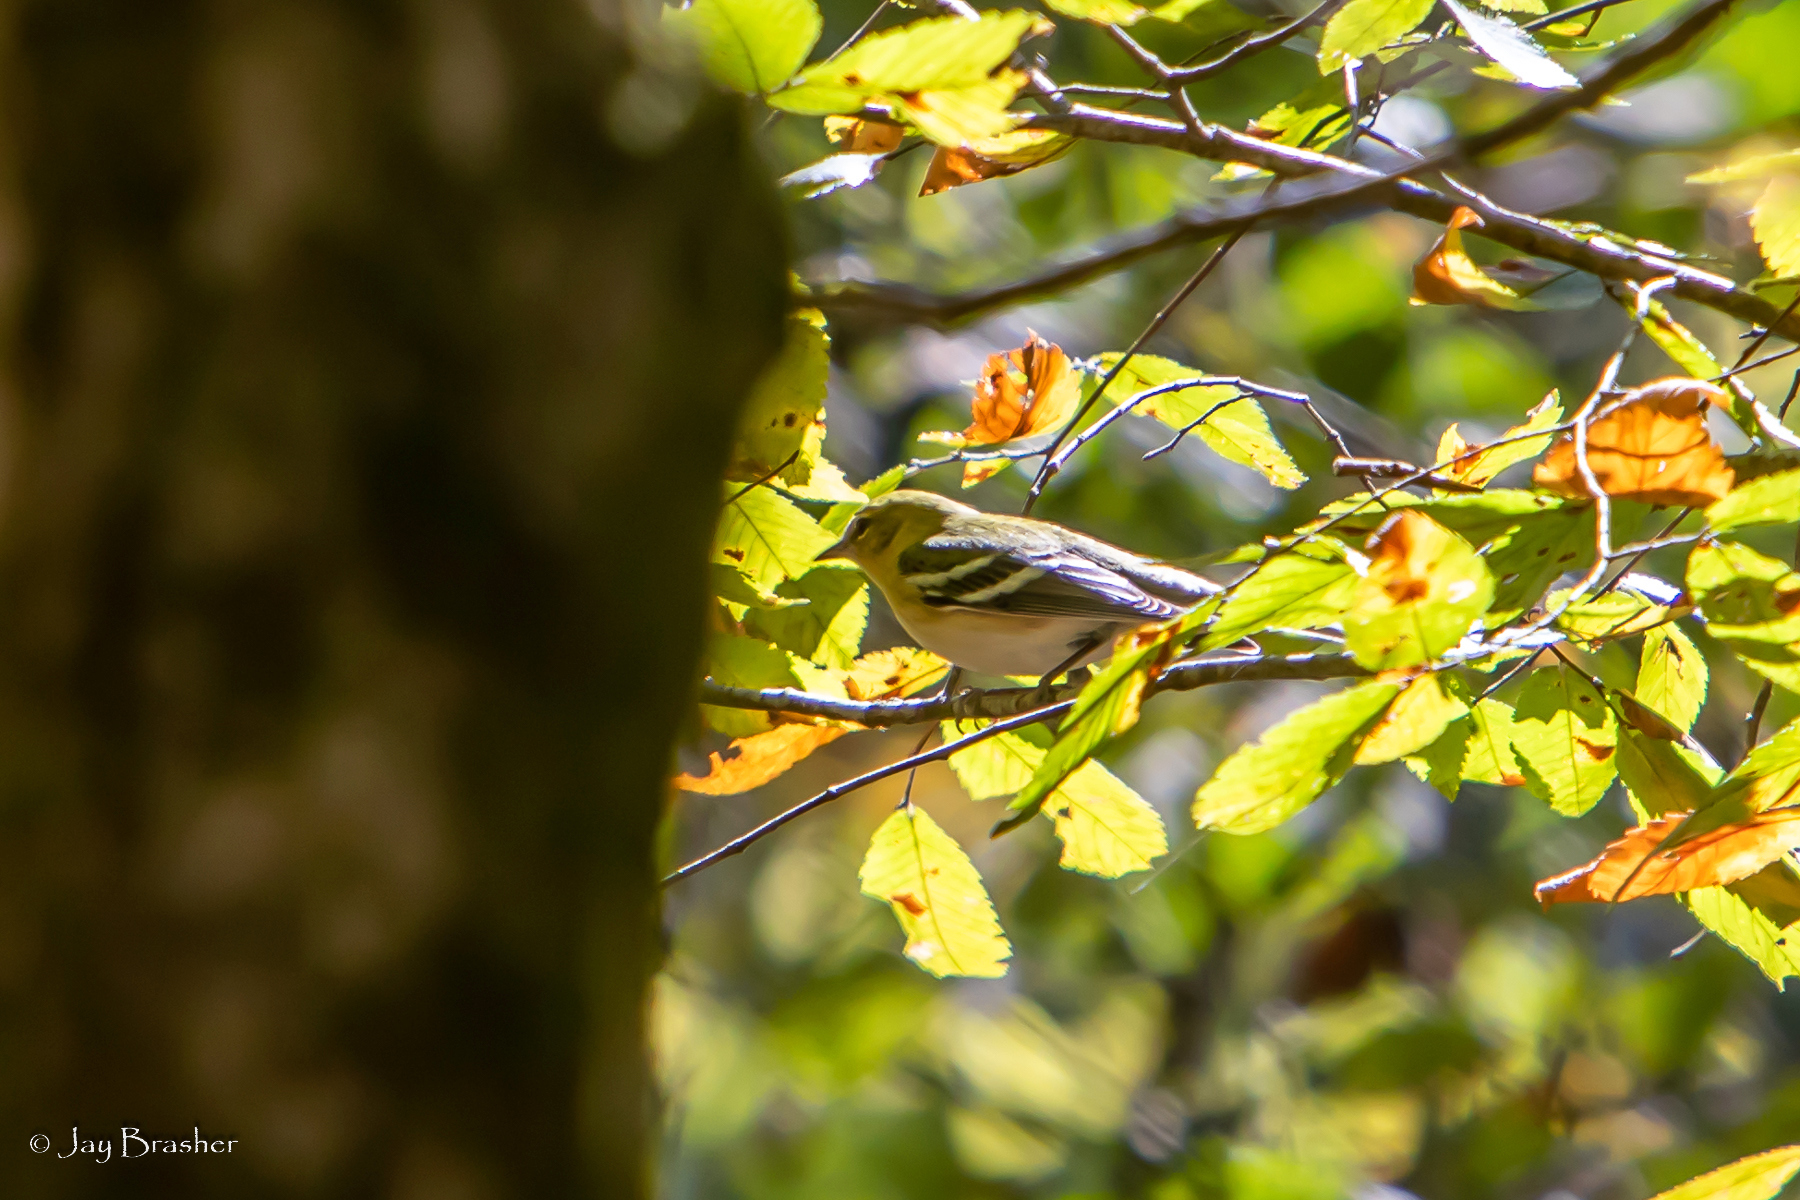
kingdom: Animalia
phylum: Chordata
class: Aves
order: Passeriformes
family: Parulidae
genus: Setophaga
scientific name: Setophaga castanea
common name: Bay-breasted warbler
